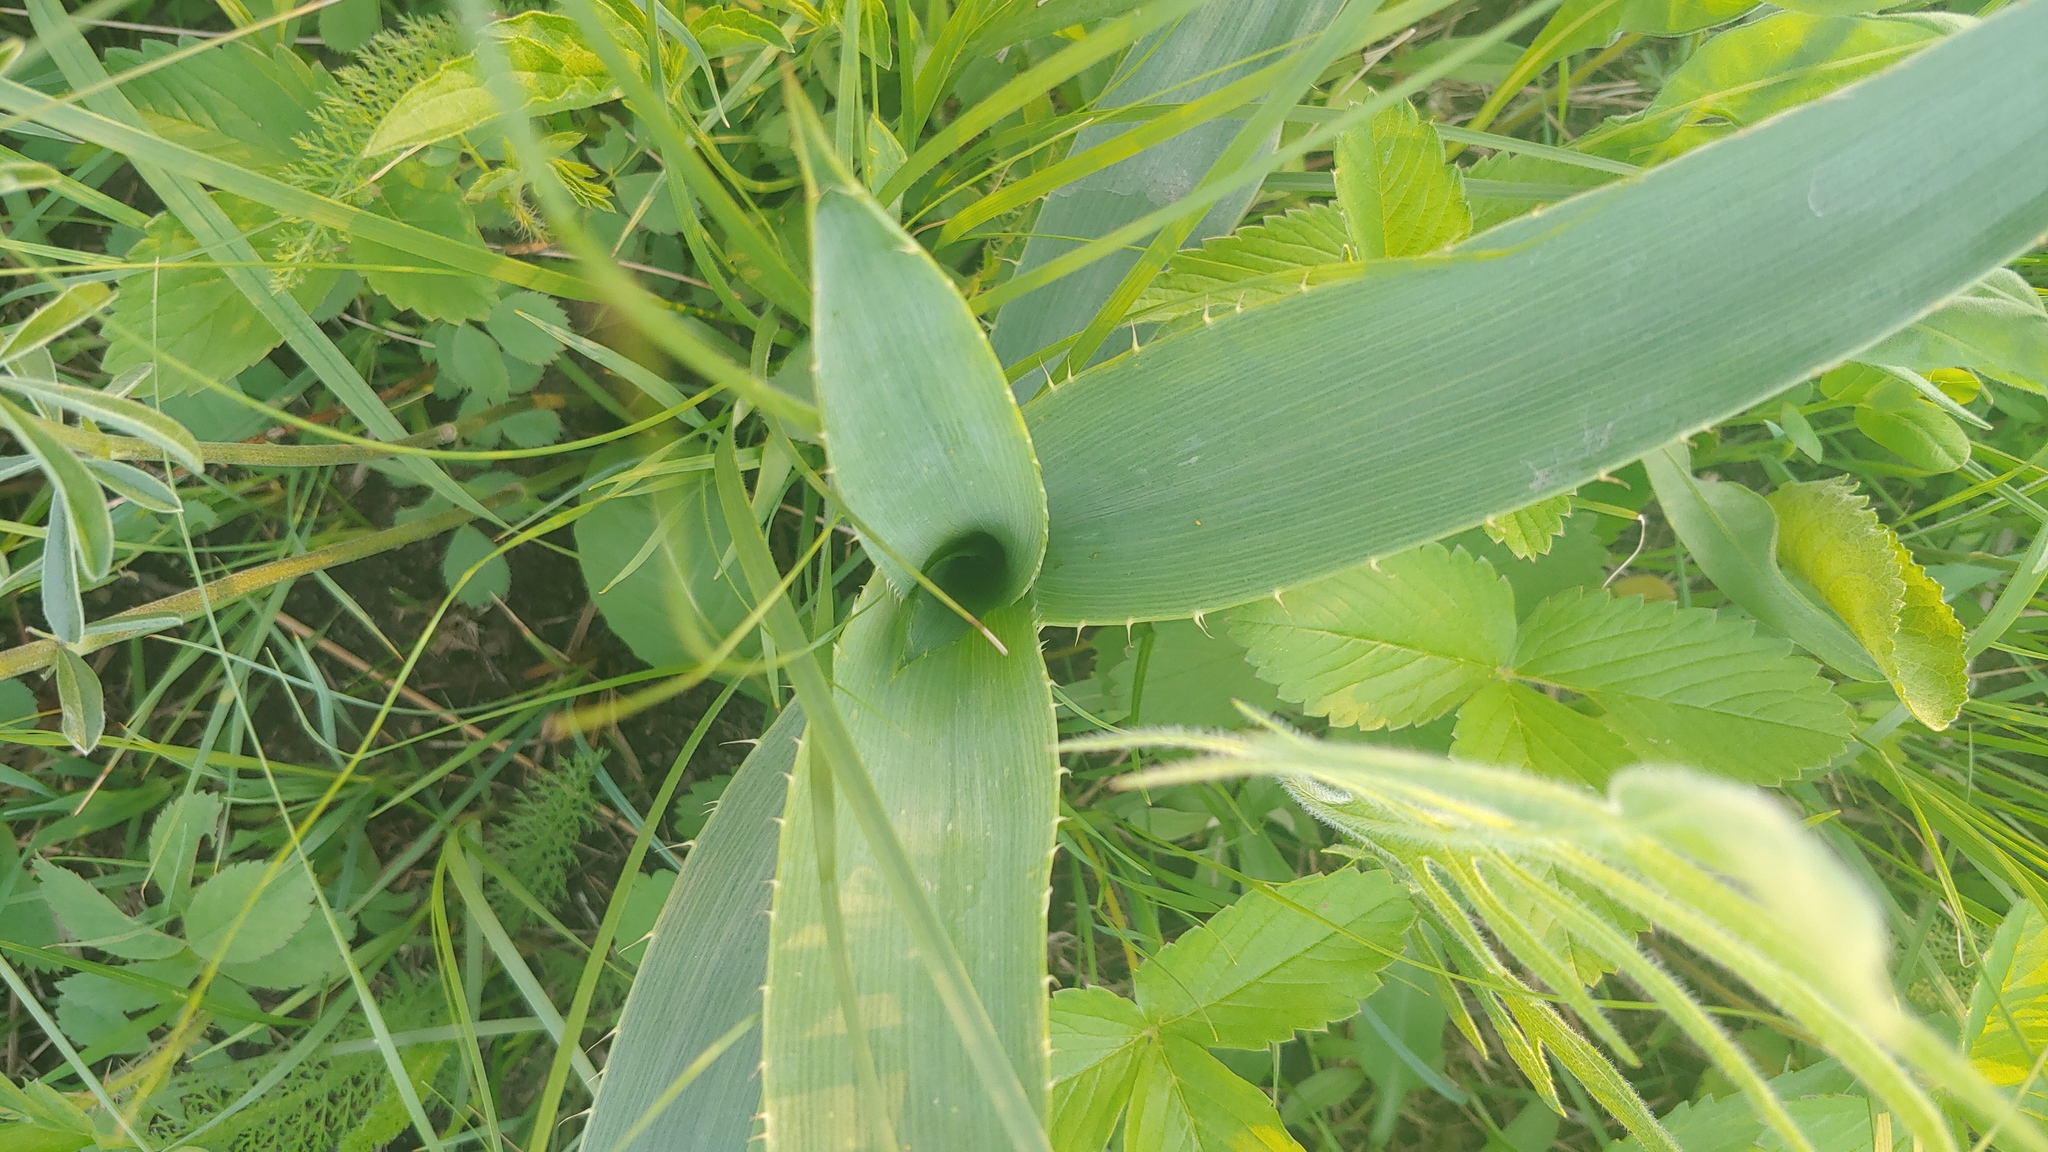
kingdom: Plantae
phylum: Tracheophyta
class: Magnoliopsida
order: Apiales
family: Apiaceae
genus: Eryngium
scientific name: Eryngium yuccifolium
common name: Button eryngo
